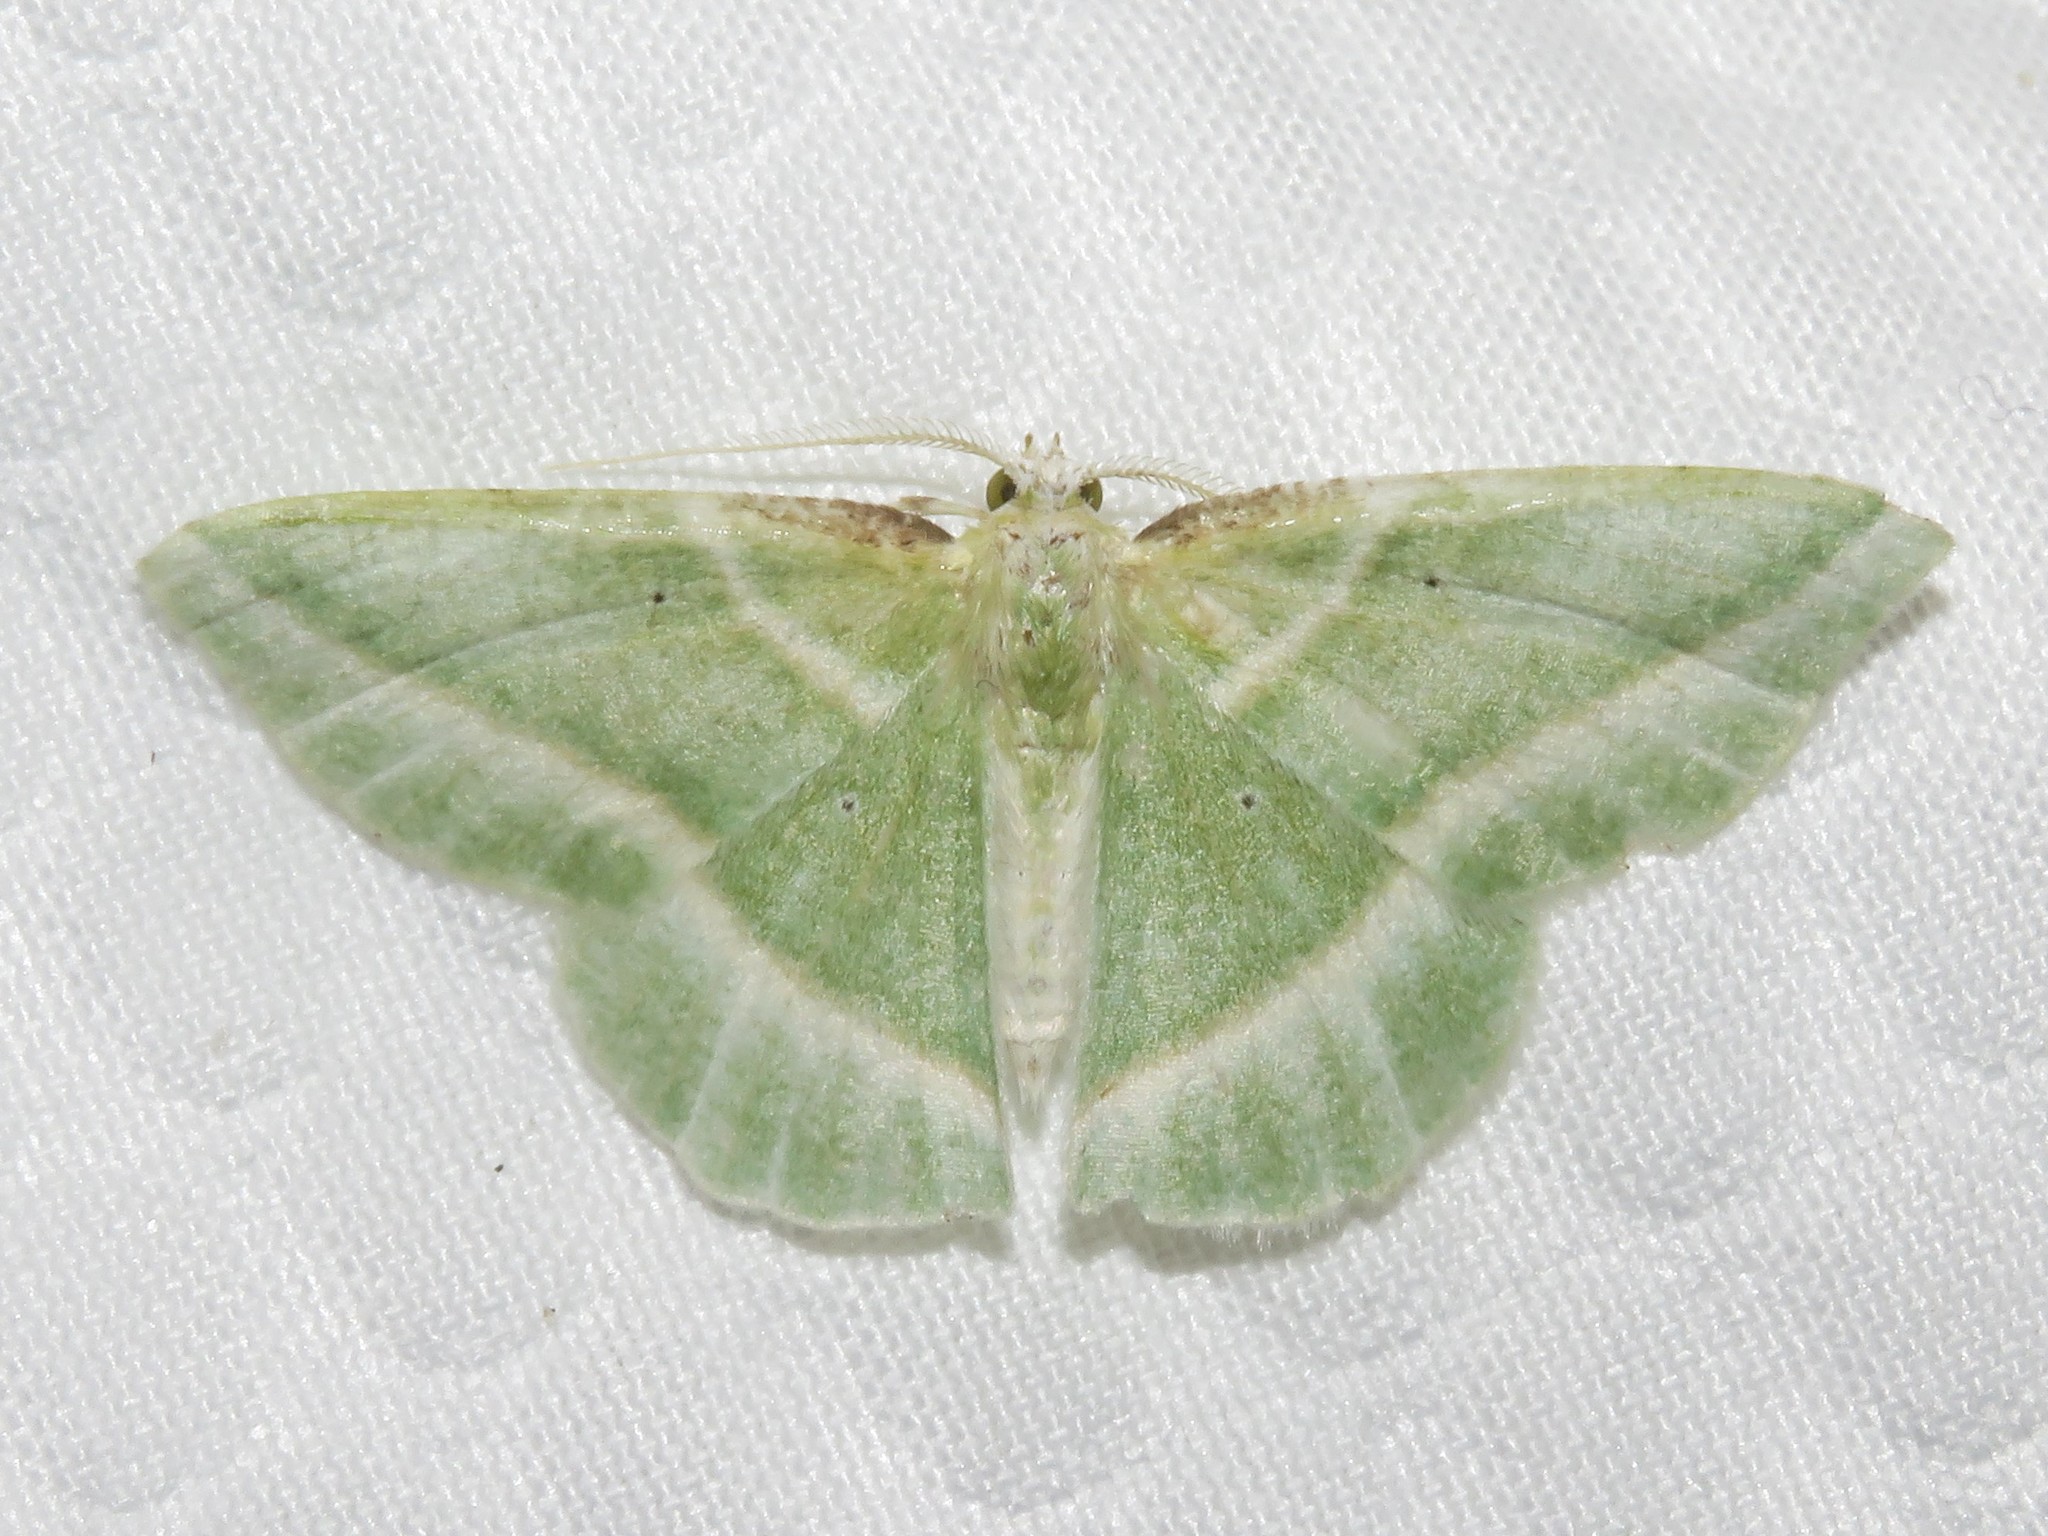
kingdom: Animalia
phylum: Arthropoda
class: Insecta
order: Lepidoptera
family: Geometridae
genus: Dichorda
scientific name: Dichorda iridaria
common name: Showy emerald
